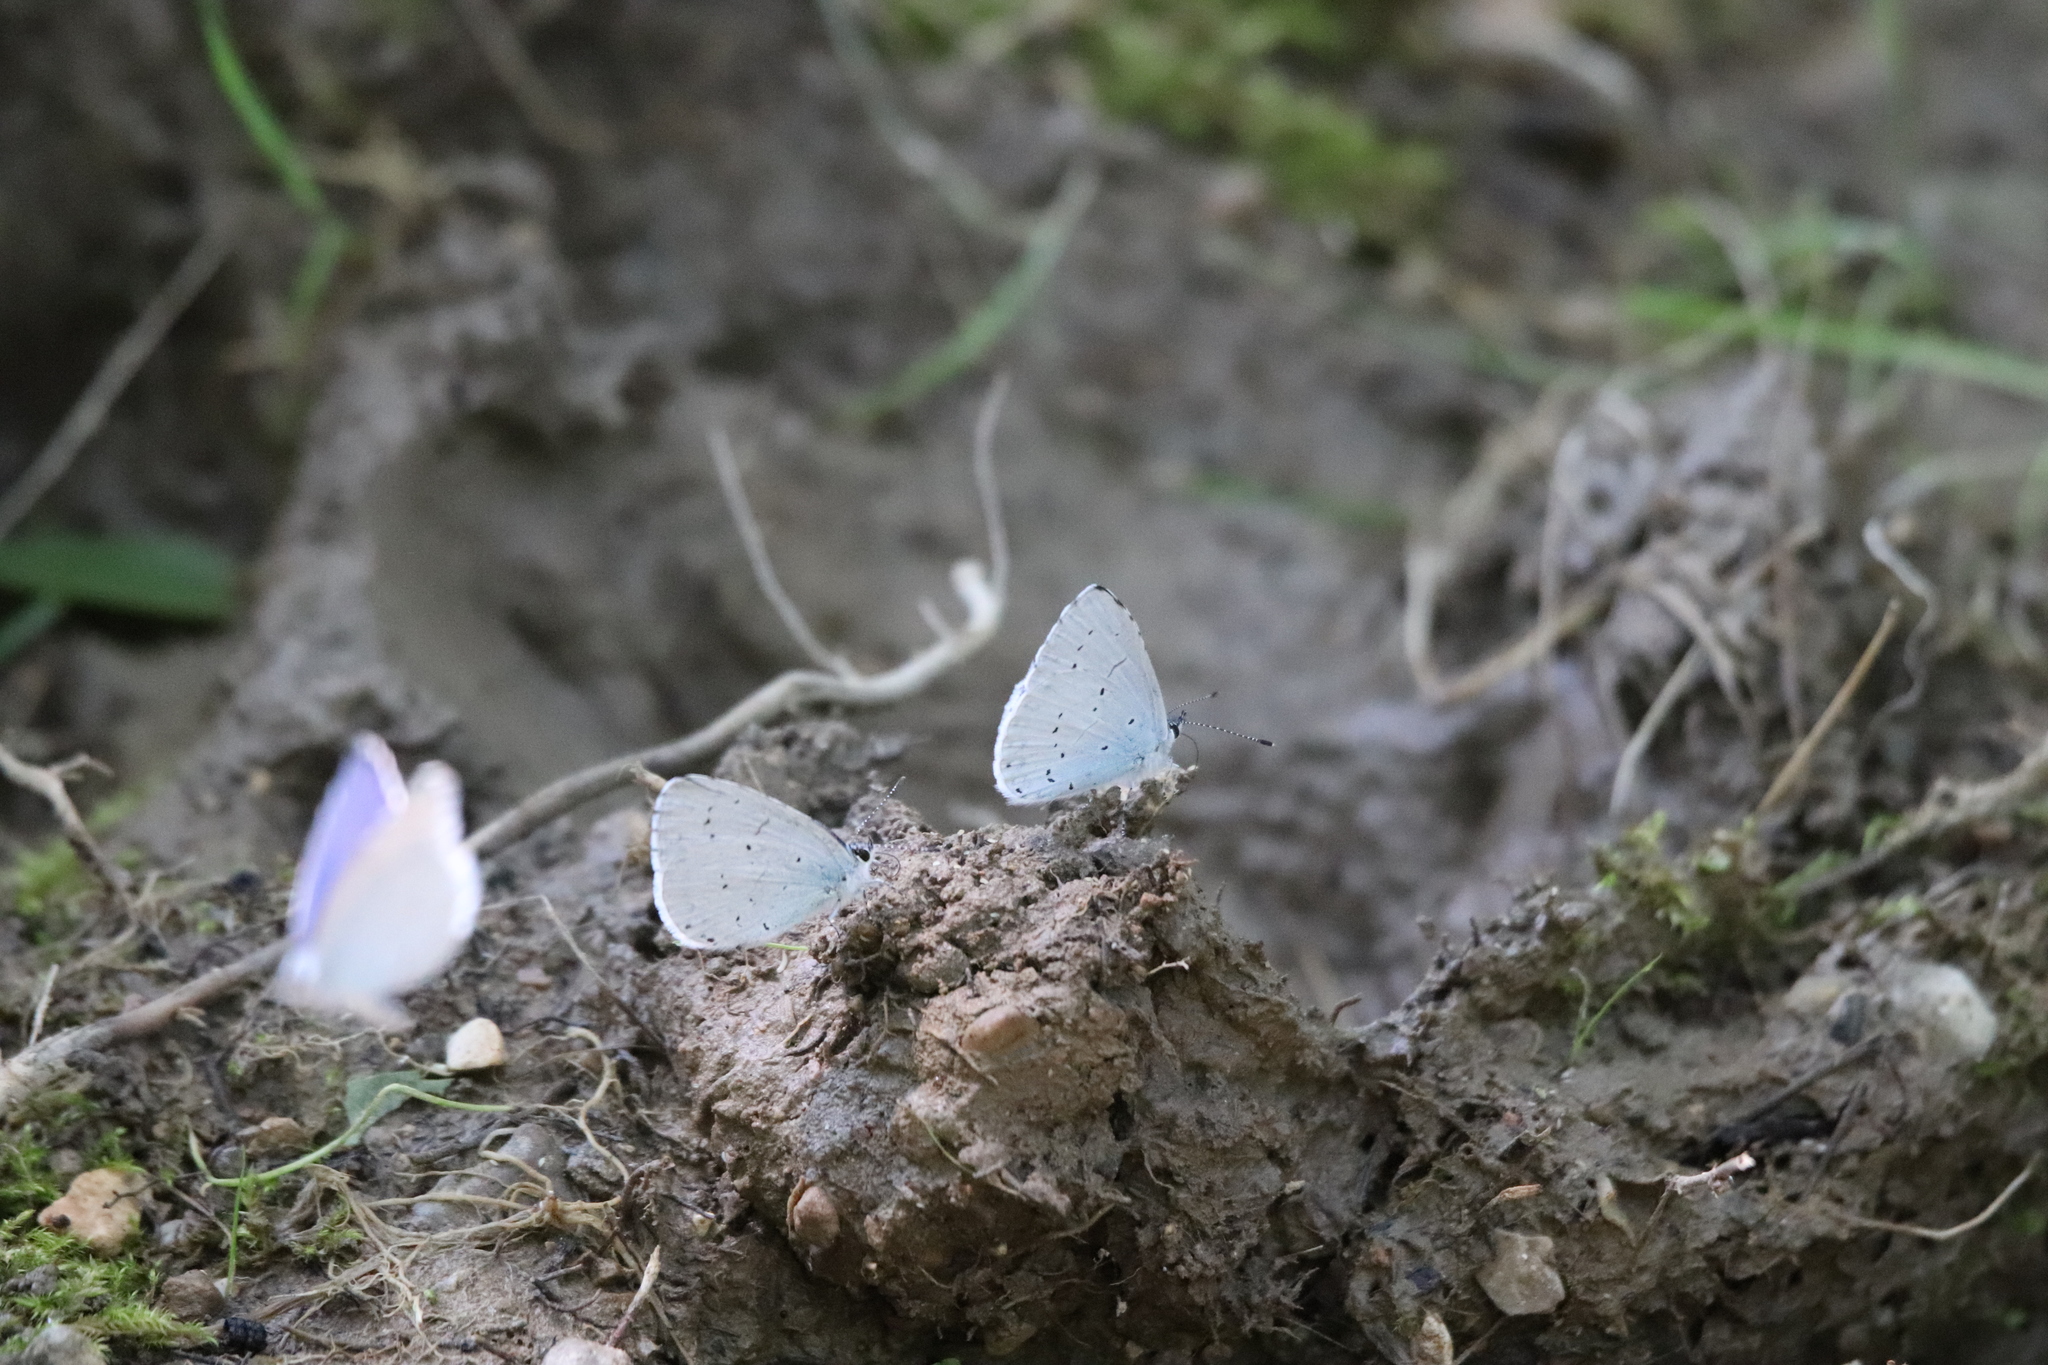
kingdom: Animalia
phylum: Arthropoda
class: Insecta
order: Lepidoptera
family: Lycaenidae
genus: Celastrina
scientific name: Celastrina argiolus
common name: Holly blue
